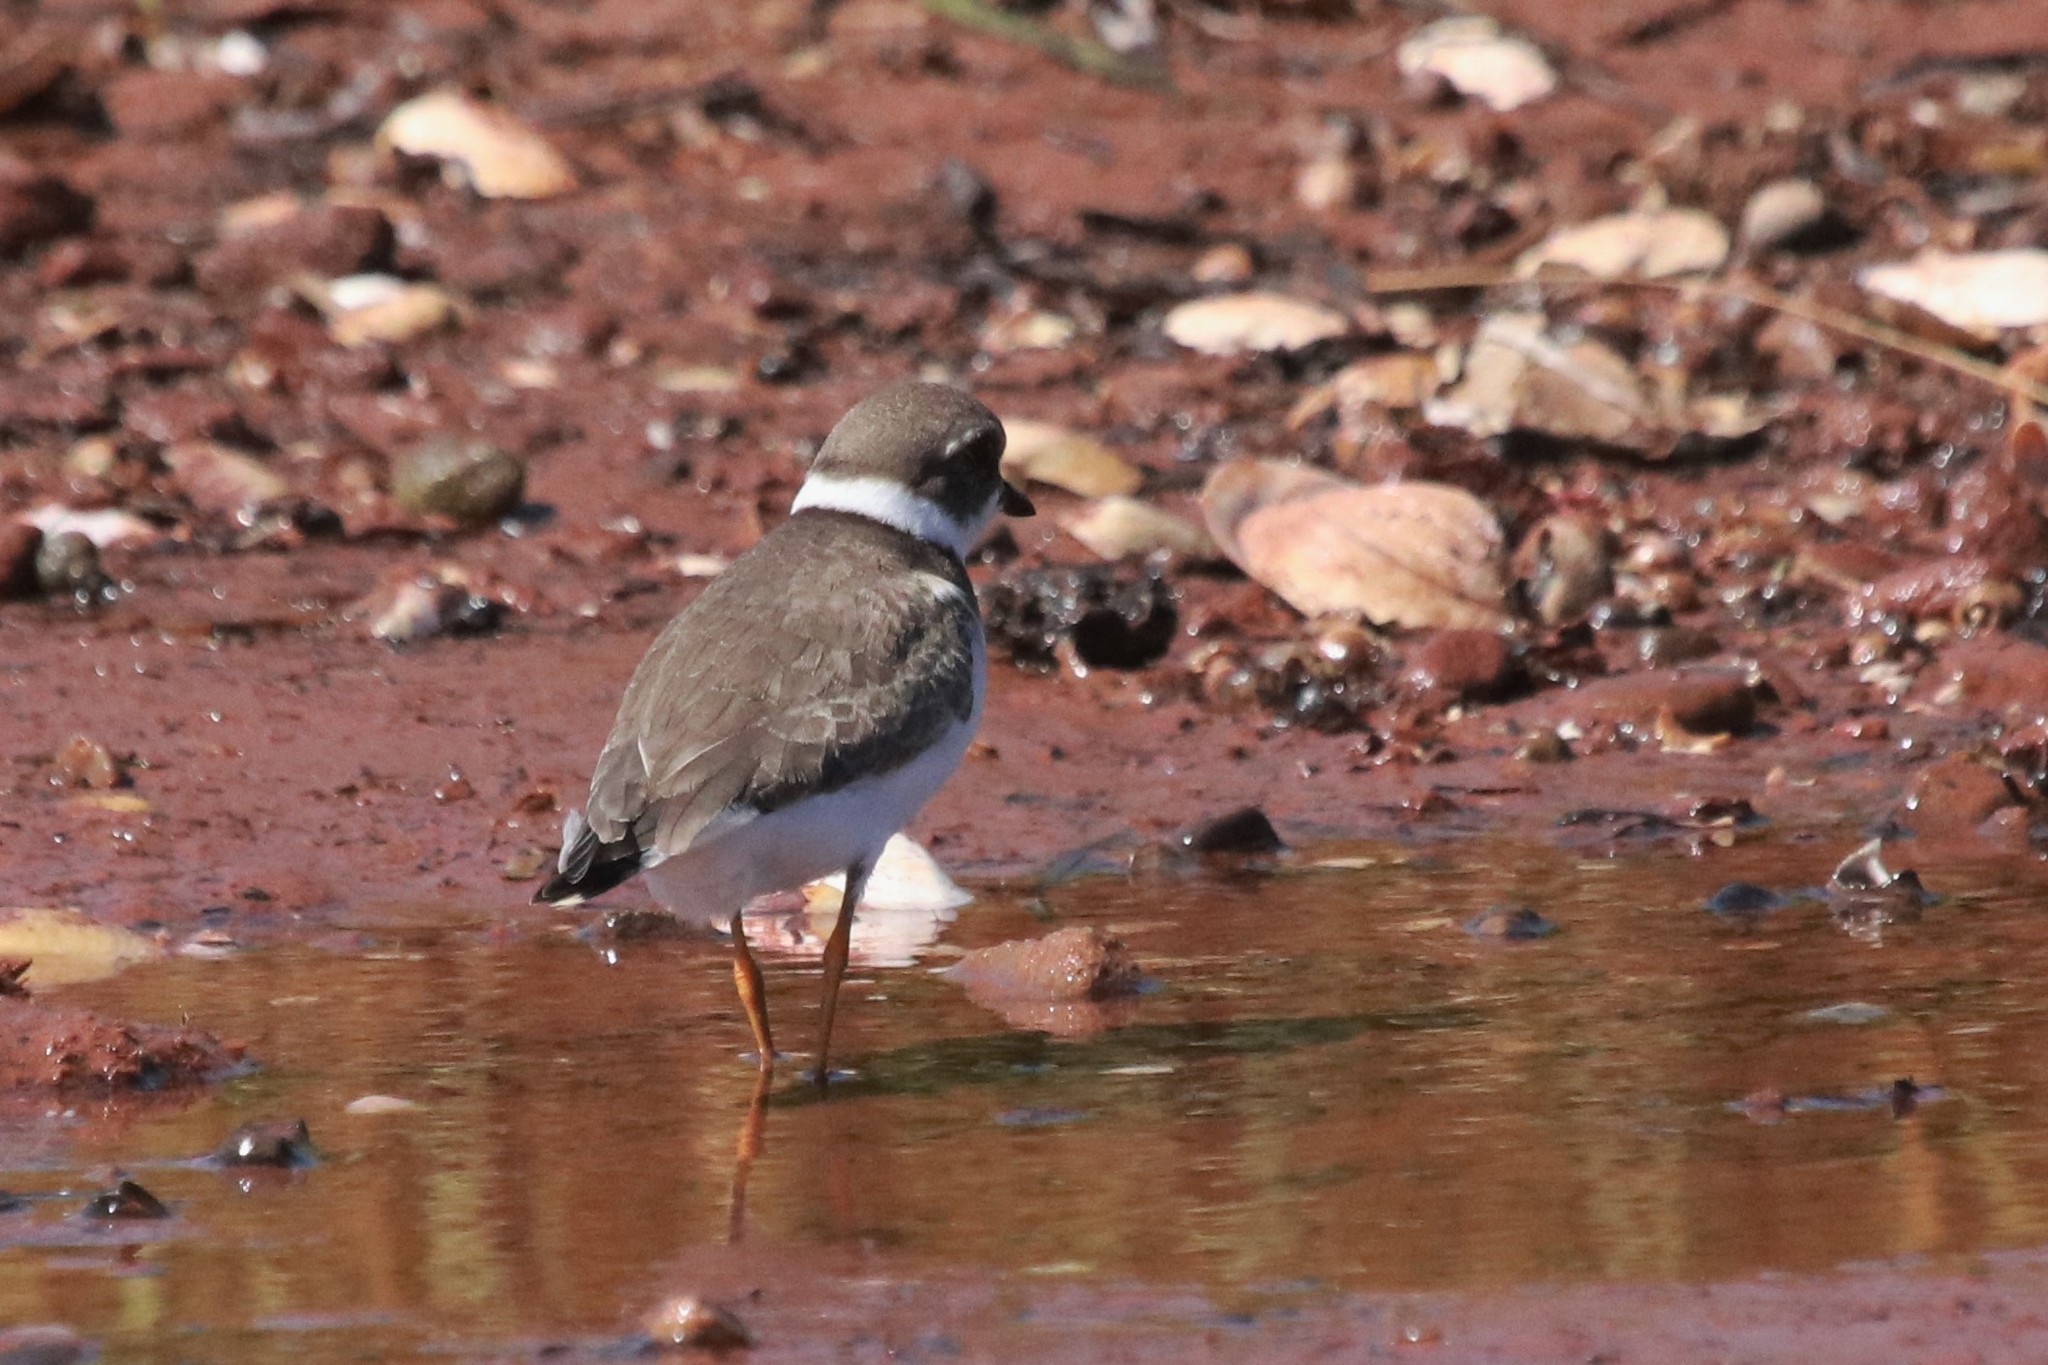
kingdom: Animalia
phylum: Chordata
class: Aves
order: Charadriiformes
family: Charadriidae
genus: Charadrius
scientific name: Charadrius semipalmatus
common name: Semipalmated plover
